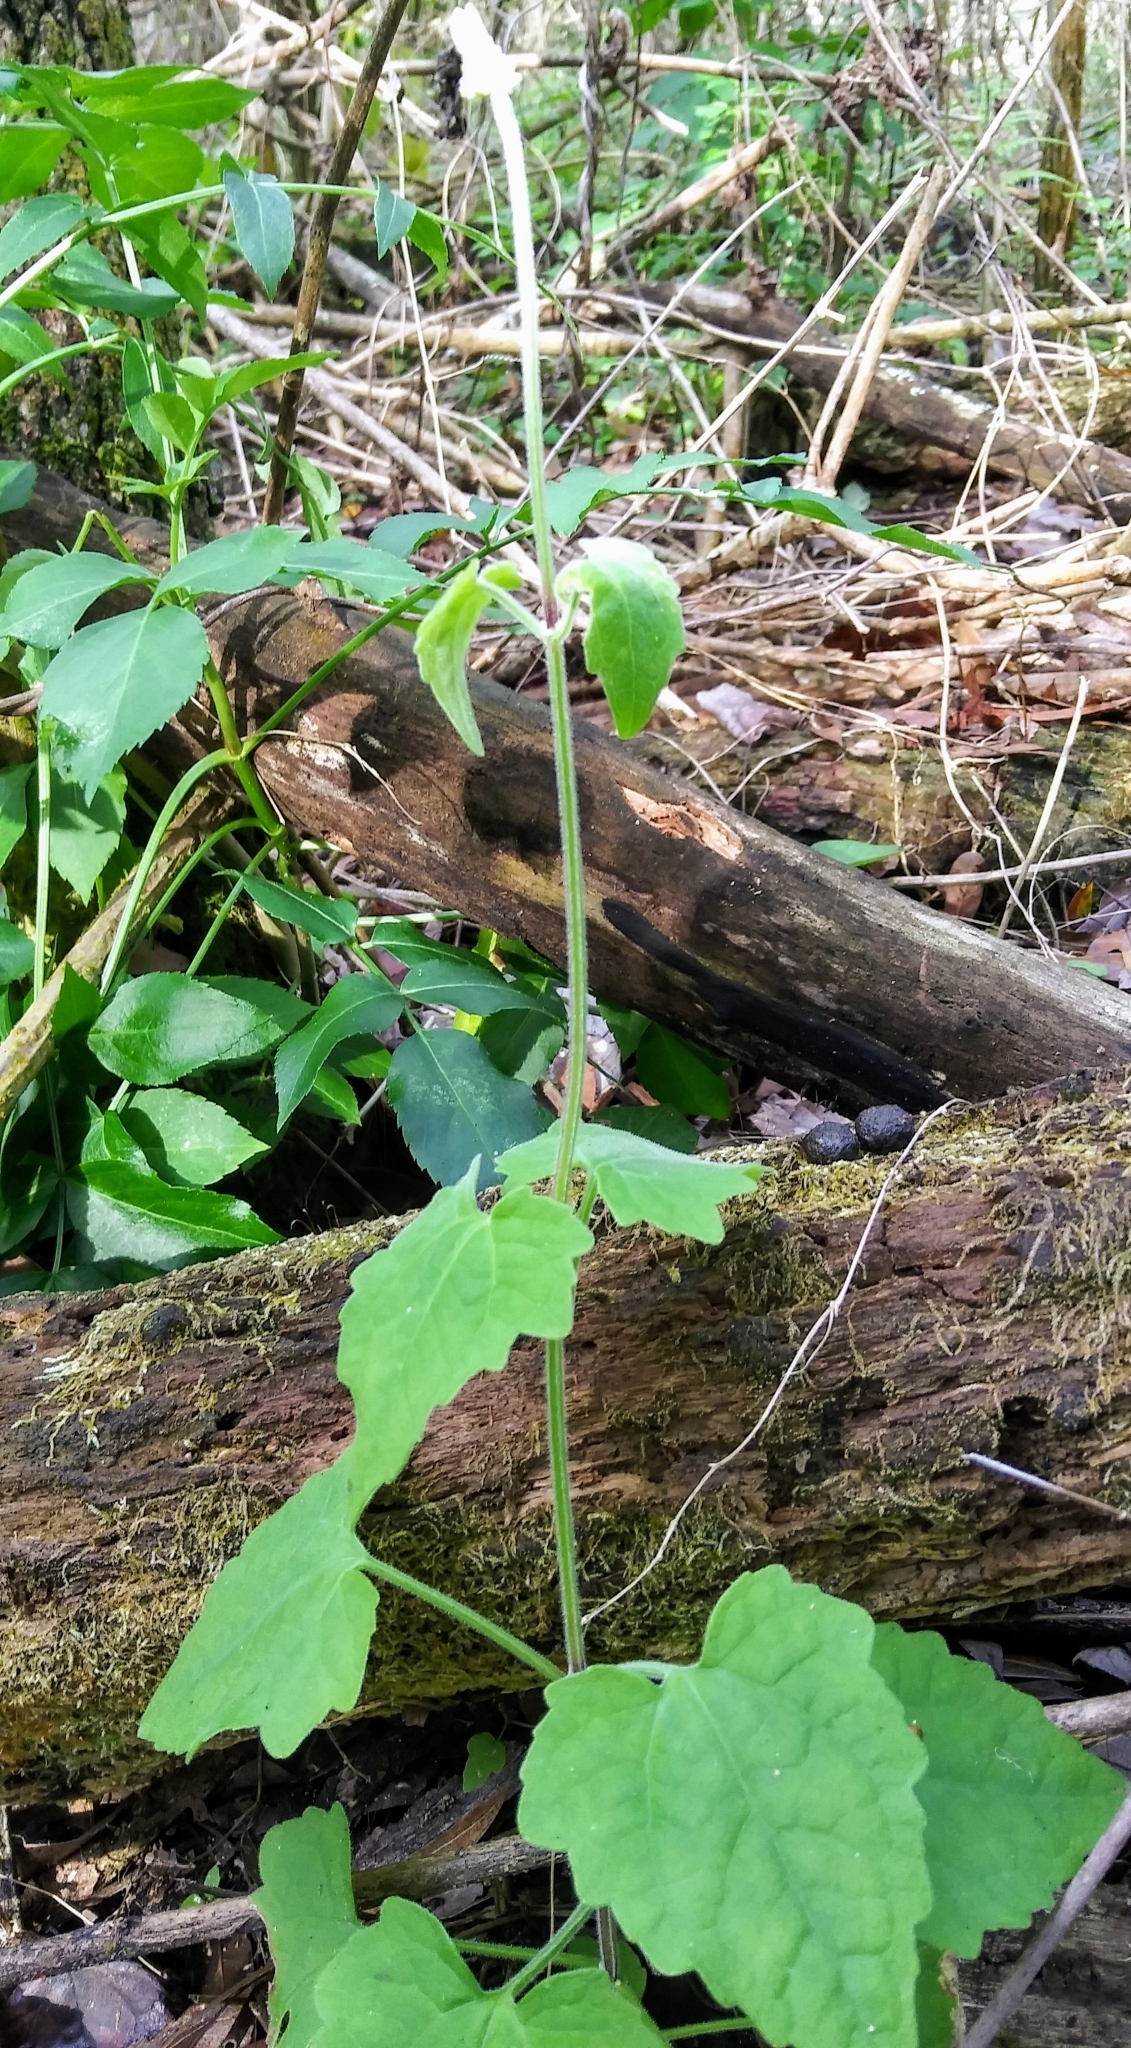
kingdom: Plantae
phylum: Tracheophyta
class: Magnoliopsida
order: Asterales
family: Asteraceae
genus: Mikania
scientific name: Mikania cordifolia
